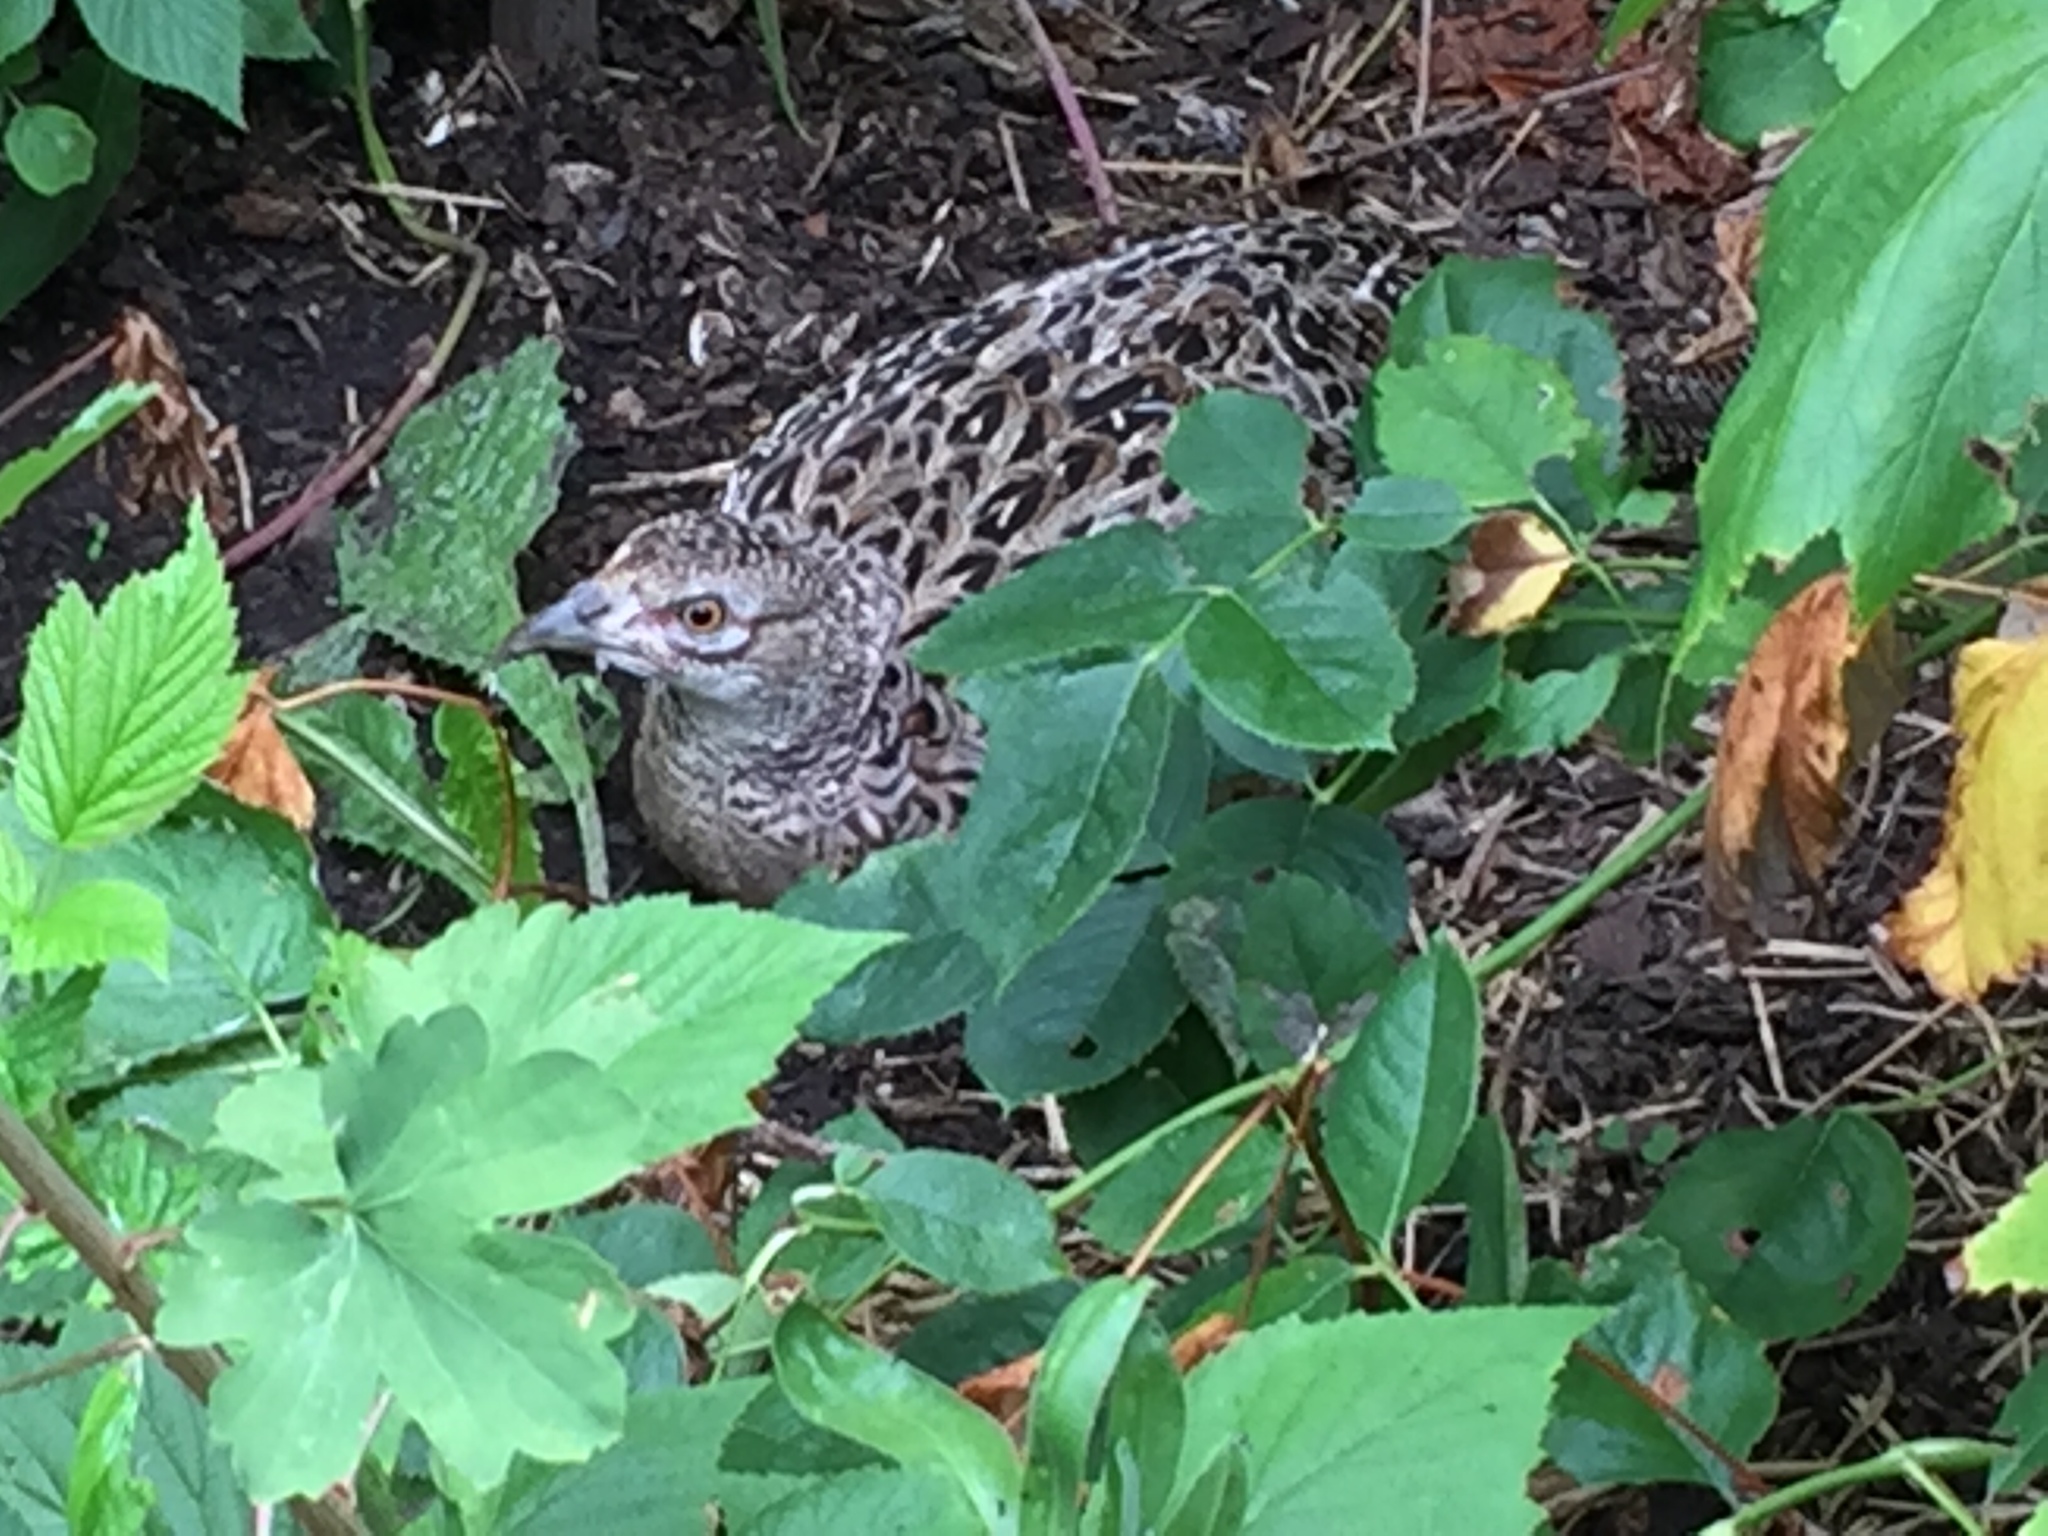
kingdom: Animalia
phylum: Chordata
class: Aves
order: Galliformes
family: Phasianidae
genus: Phasianus
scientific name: Phasianus colchicus
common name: Common pheasant
